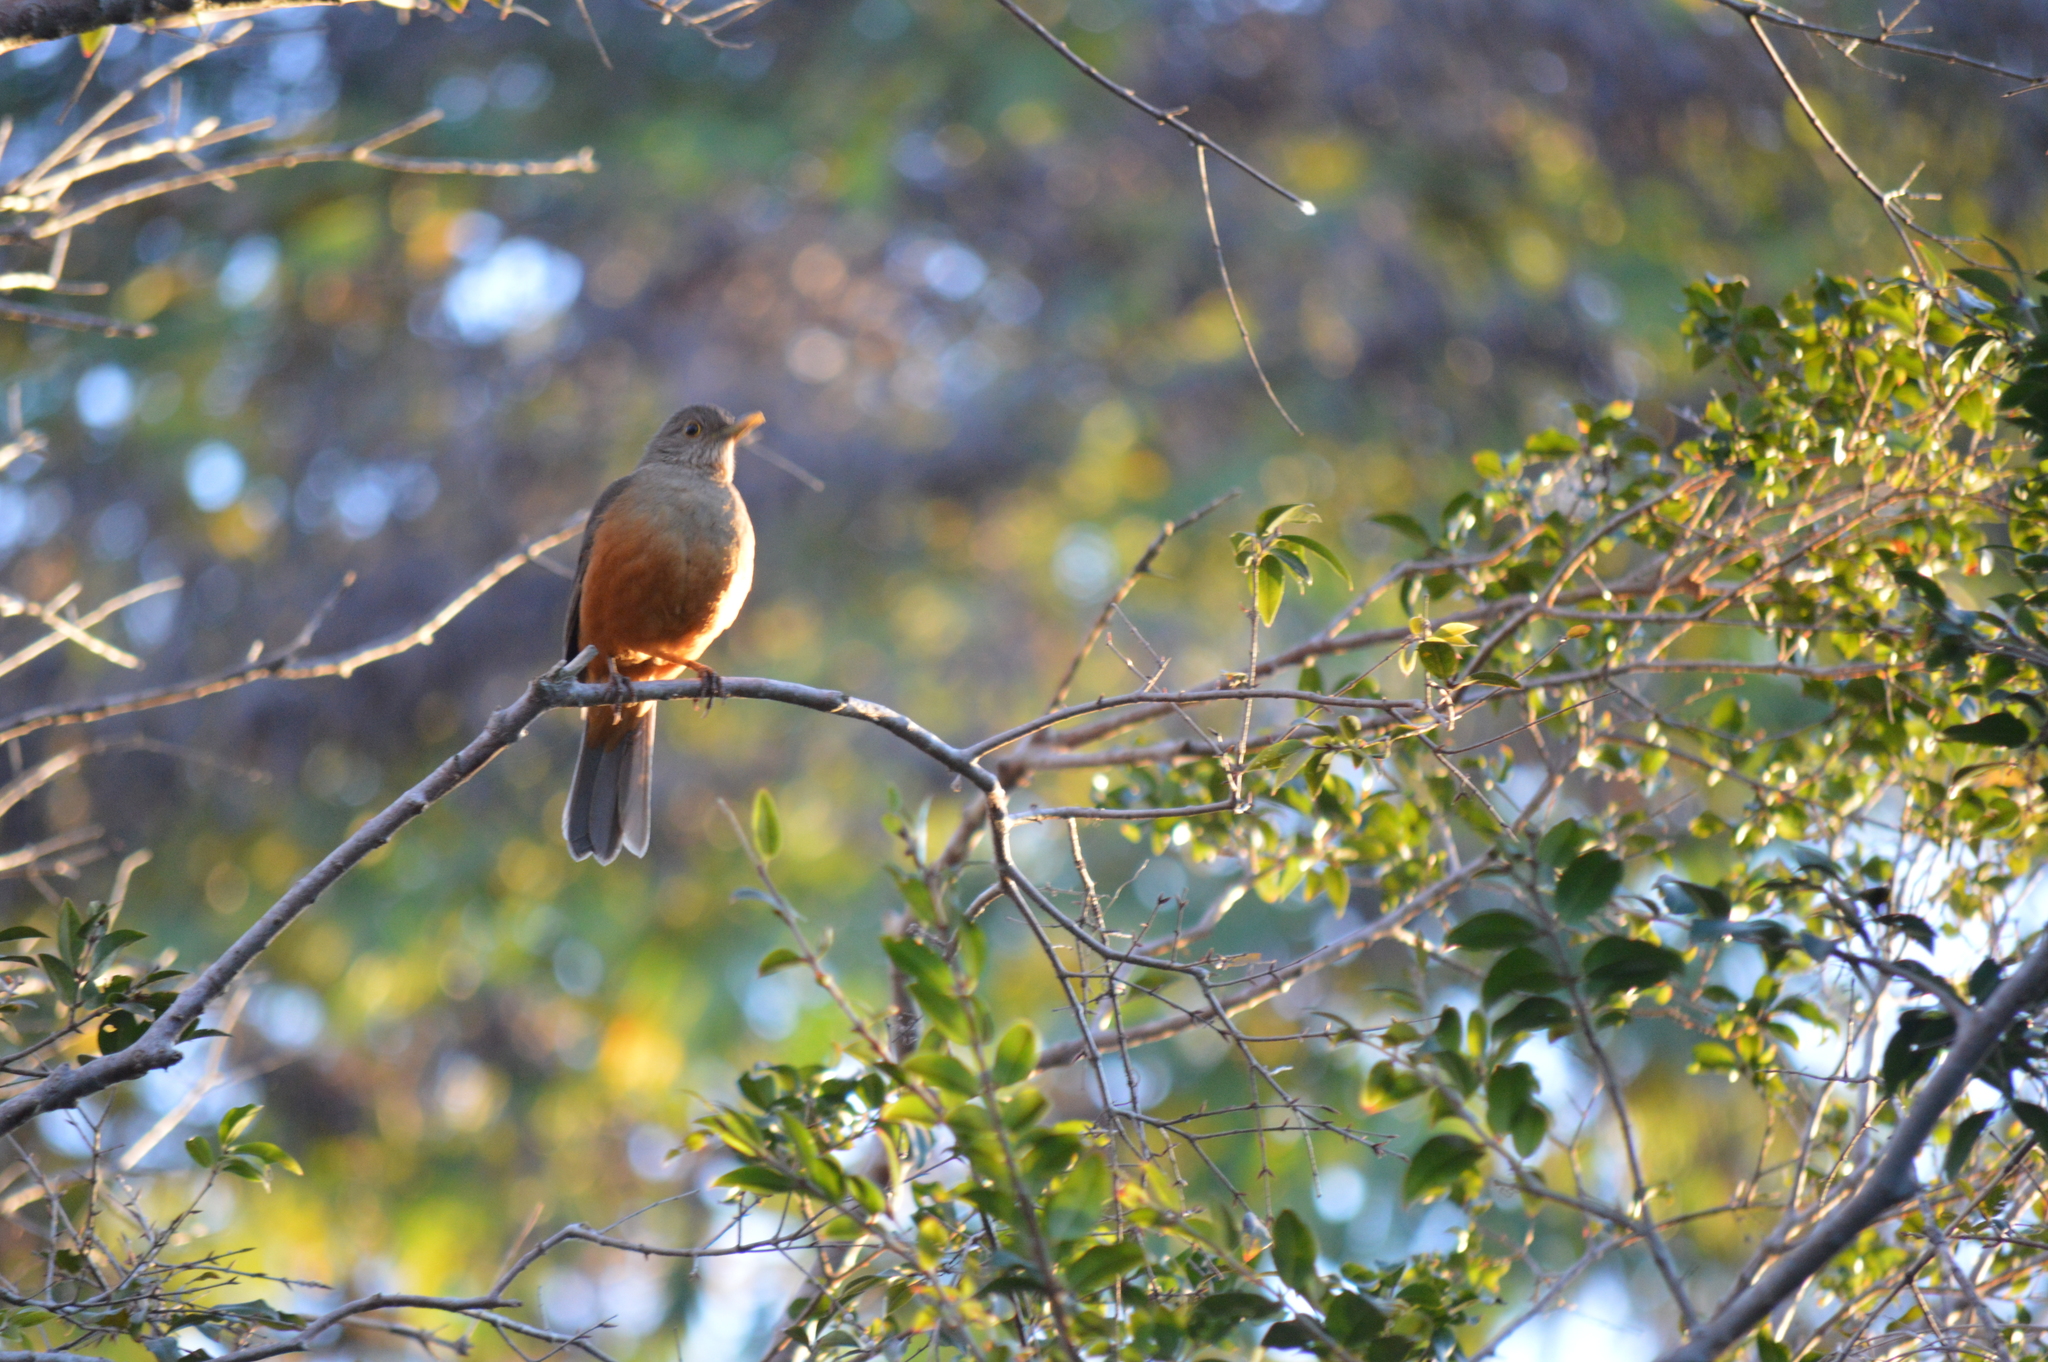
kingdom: Animalia
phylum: Chordata
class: Aves
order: Passeriformes
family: Turdidae
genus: Turdus
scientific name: Turdus rufiventris
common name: Rufous-bellied thrush
